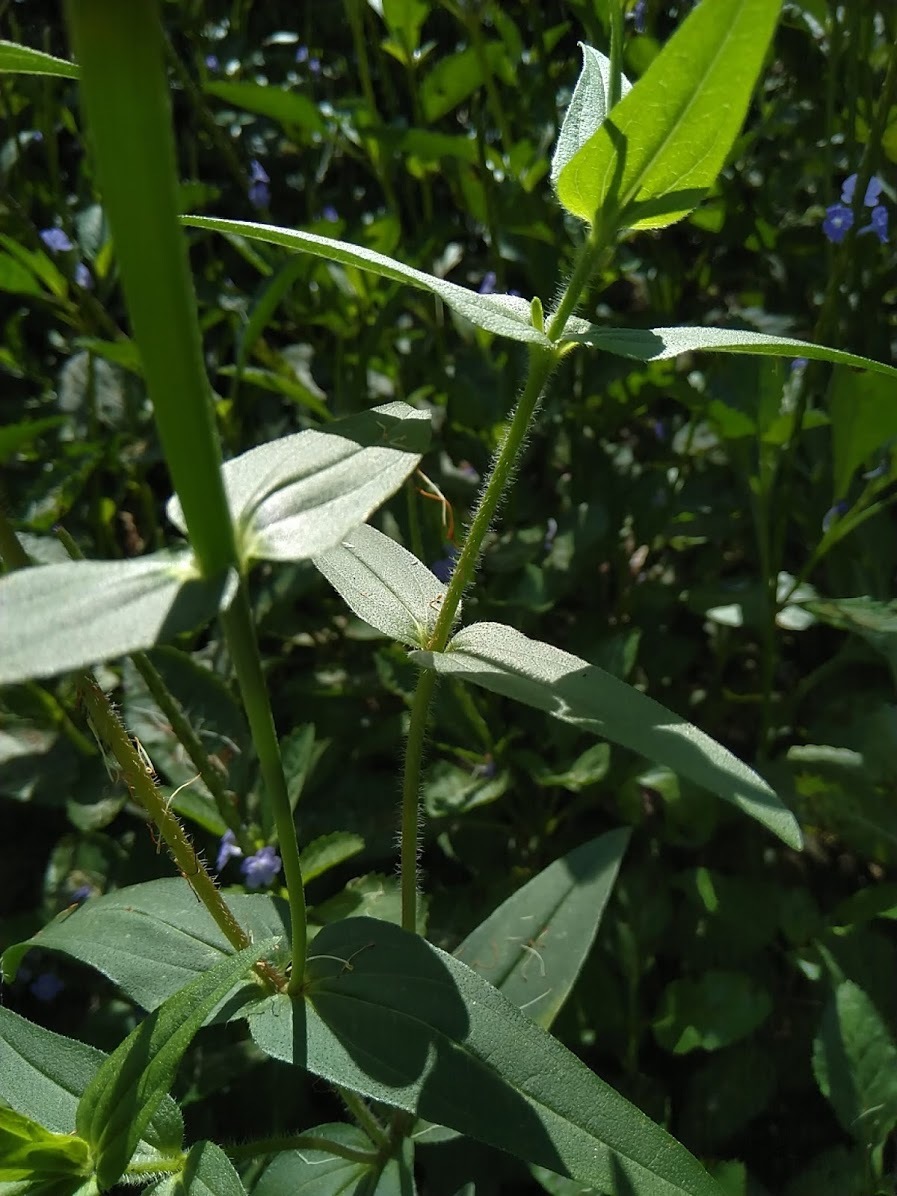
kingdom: Plantae
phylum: Tracheophyta
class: Magnoliopsida
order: Asterales
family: Asteraceae
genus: Zinnia
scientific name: Zinnia peruviana
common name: Peruvian zinnia
